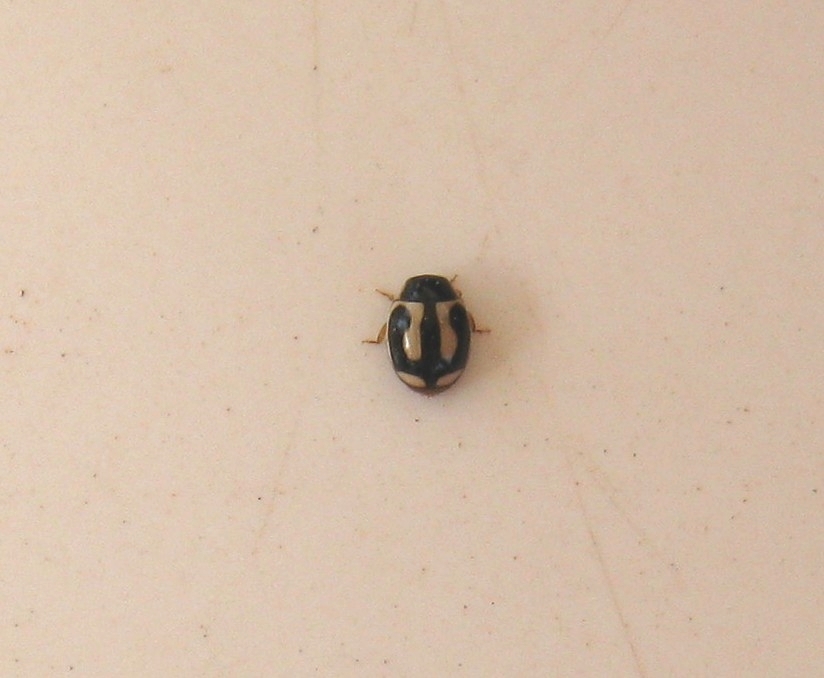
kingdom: Animalia
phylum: Arthropoda
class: Insecta
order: Coleoptera
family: Coccinellidae
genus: Hyperaspis
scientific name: Hyperaspis vinciguerrae
